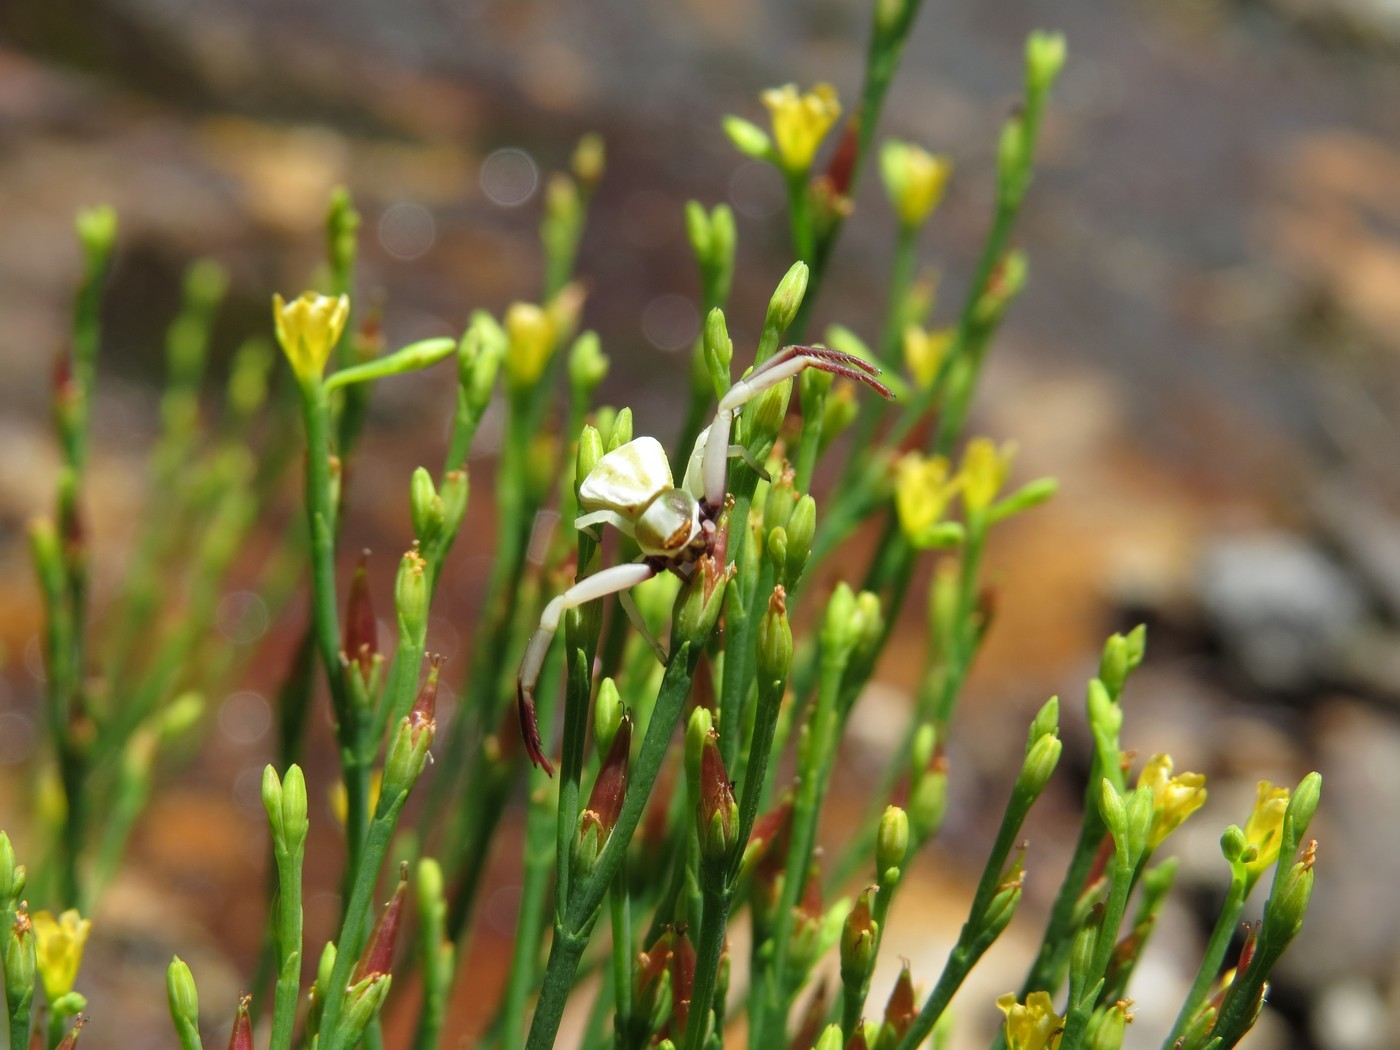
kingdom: Animalia
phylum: Arthropoda
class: Arachnida
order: Araneae
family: Thomisidae
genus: Misumenoides
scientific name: Misumenoides formosipes
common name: White-banded crab spider
